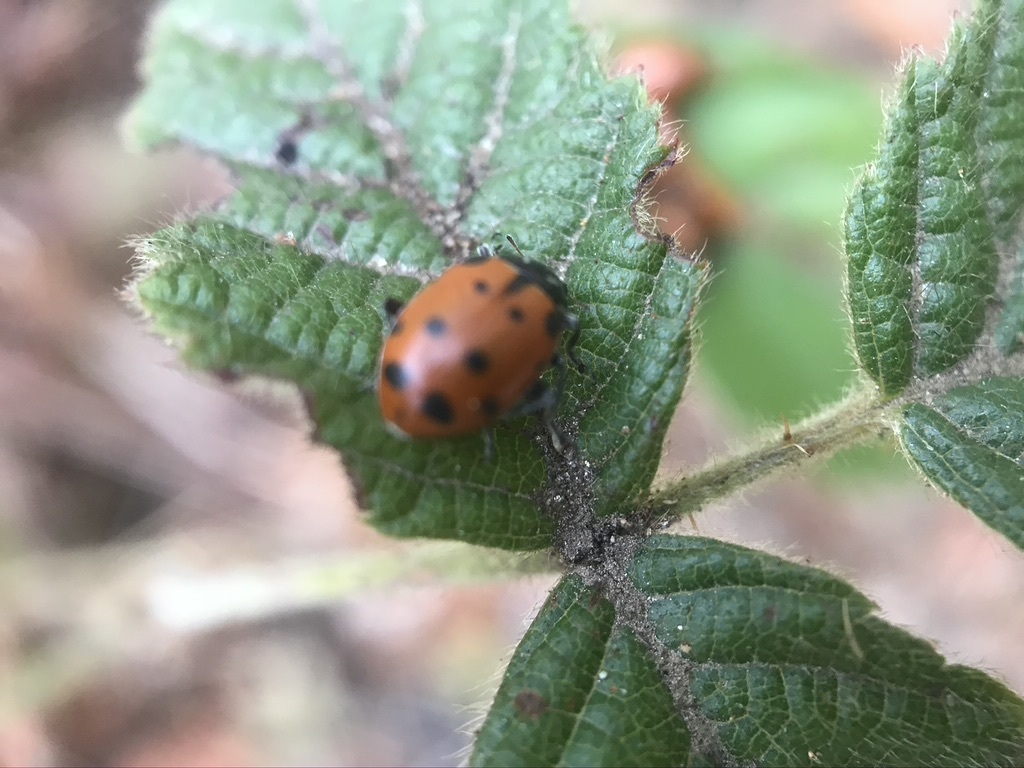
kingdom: Animalia
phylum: Arthropoda
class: Insecta
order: Coleoptera
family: Coccinellidae
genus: Hippodamia
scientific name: Hippodamia convergens
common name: Convergent lady beetle
